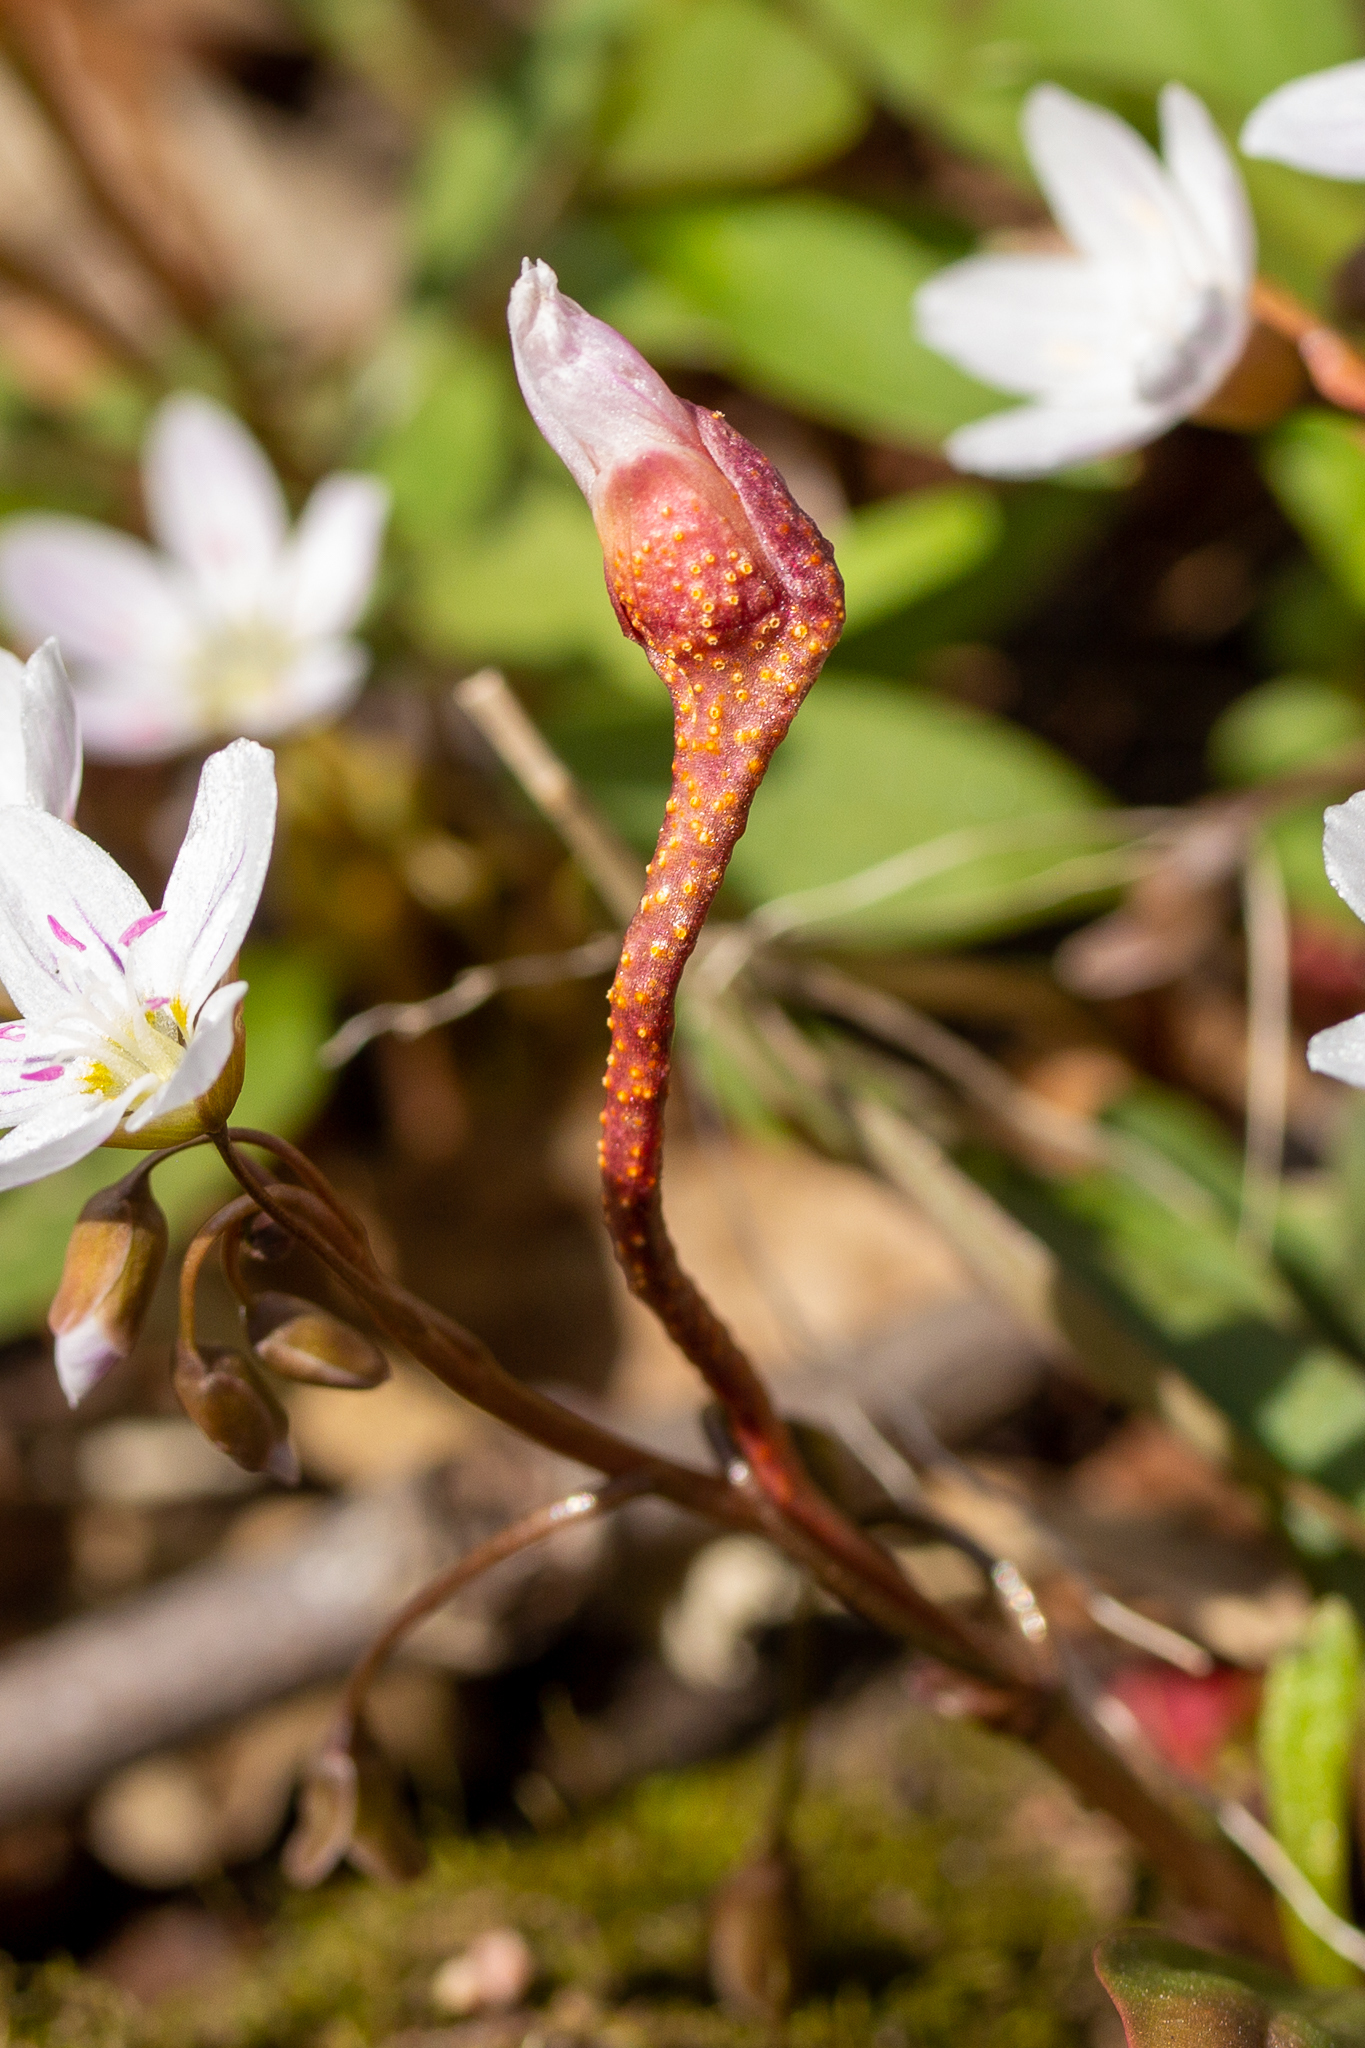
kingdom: Fungi
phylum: Basidiomycota
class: Pucciniomycetes
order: Pucciniales
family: Pucciniaceae
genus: Puccinia
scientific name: Puccinia mariae-wilsoniae
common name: Spring beauty rust
